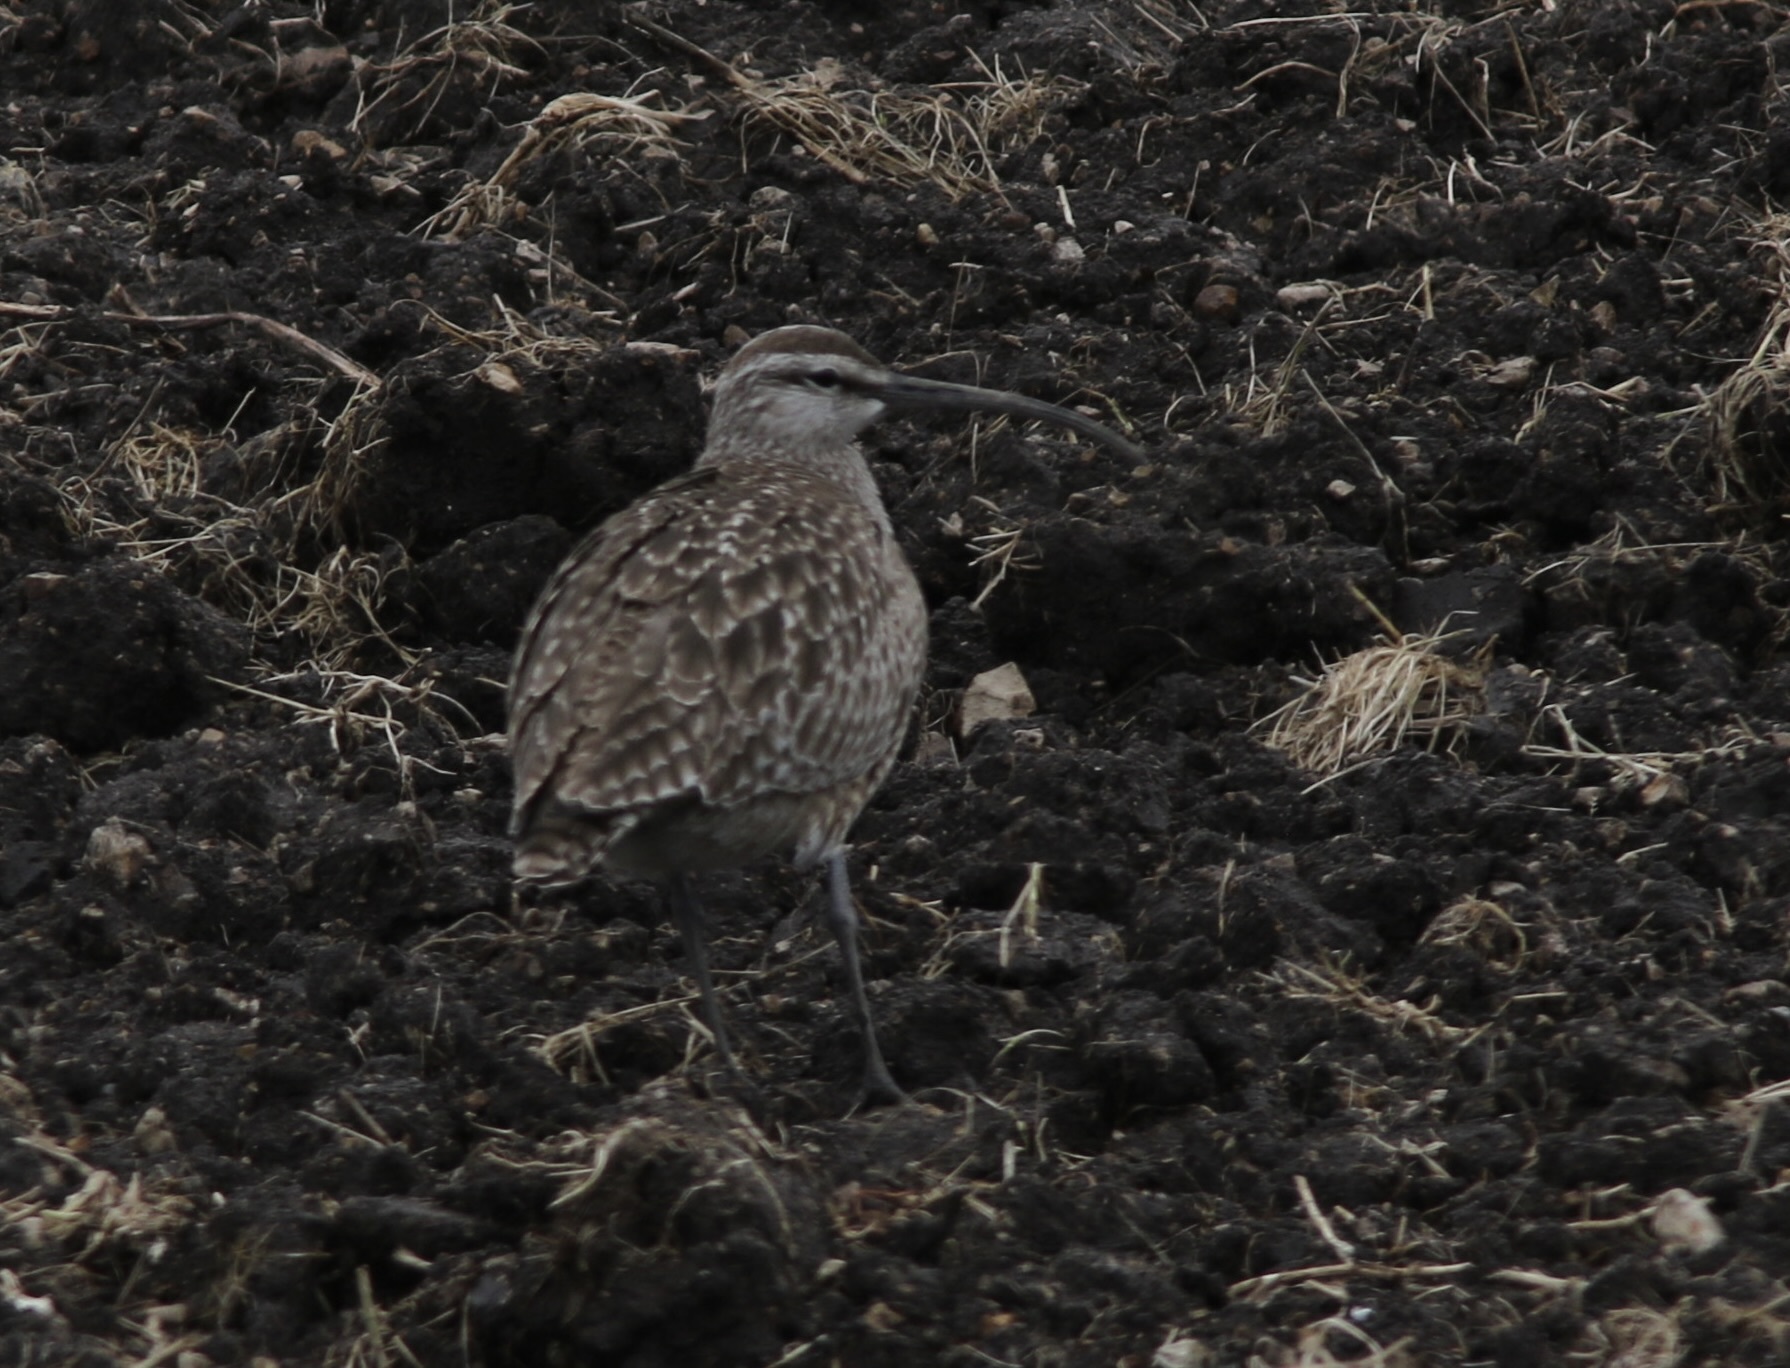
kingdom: Animalia
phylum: Chordata
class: Aves
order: Charadriiformes
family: Scolopacidae
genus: Numenius
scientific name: Numenius phaeopus
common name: Whimbrel
